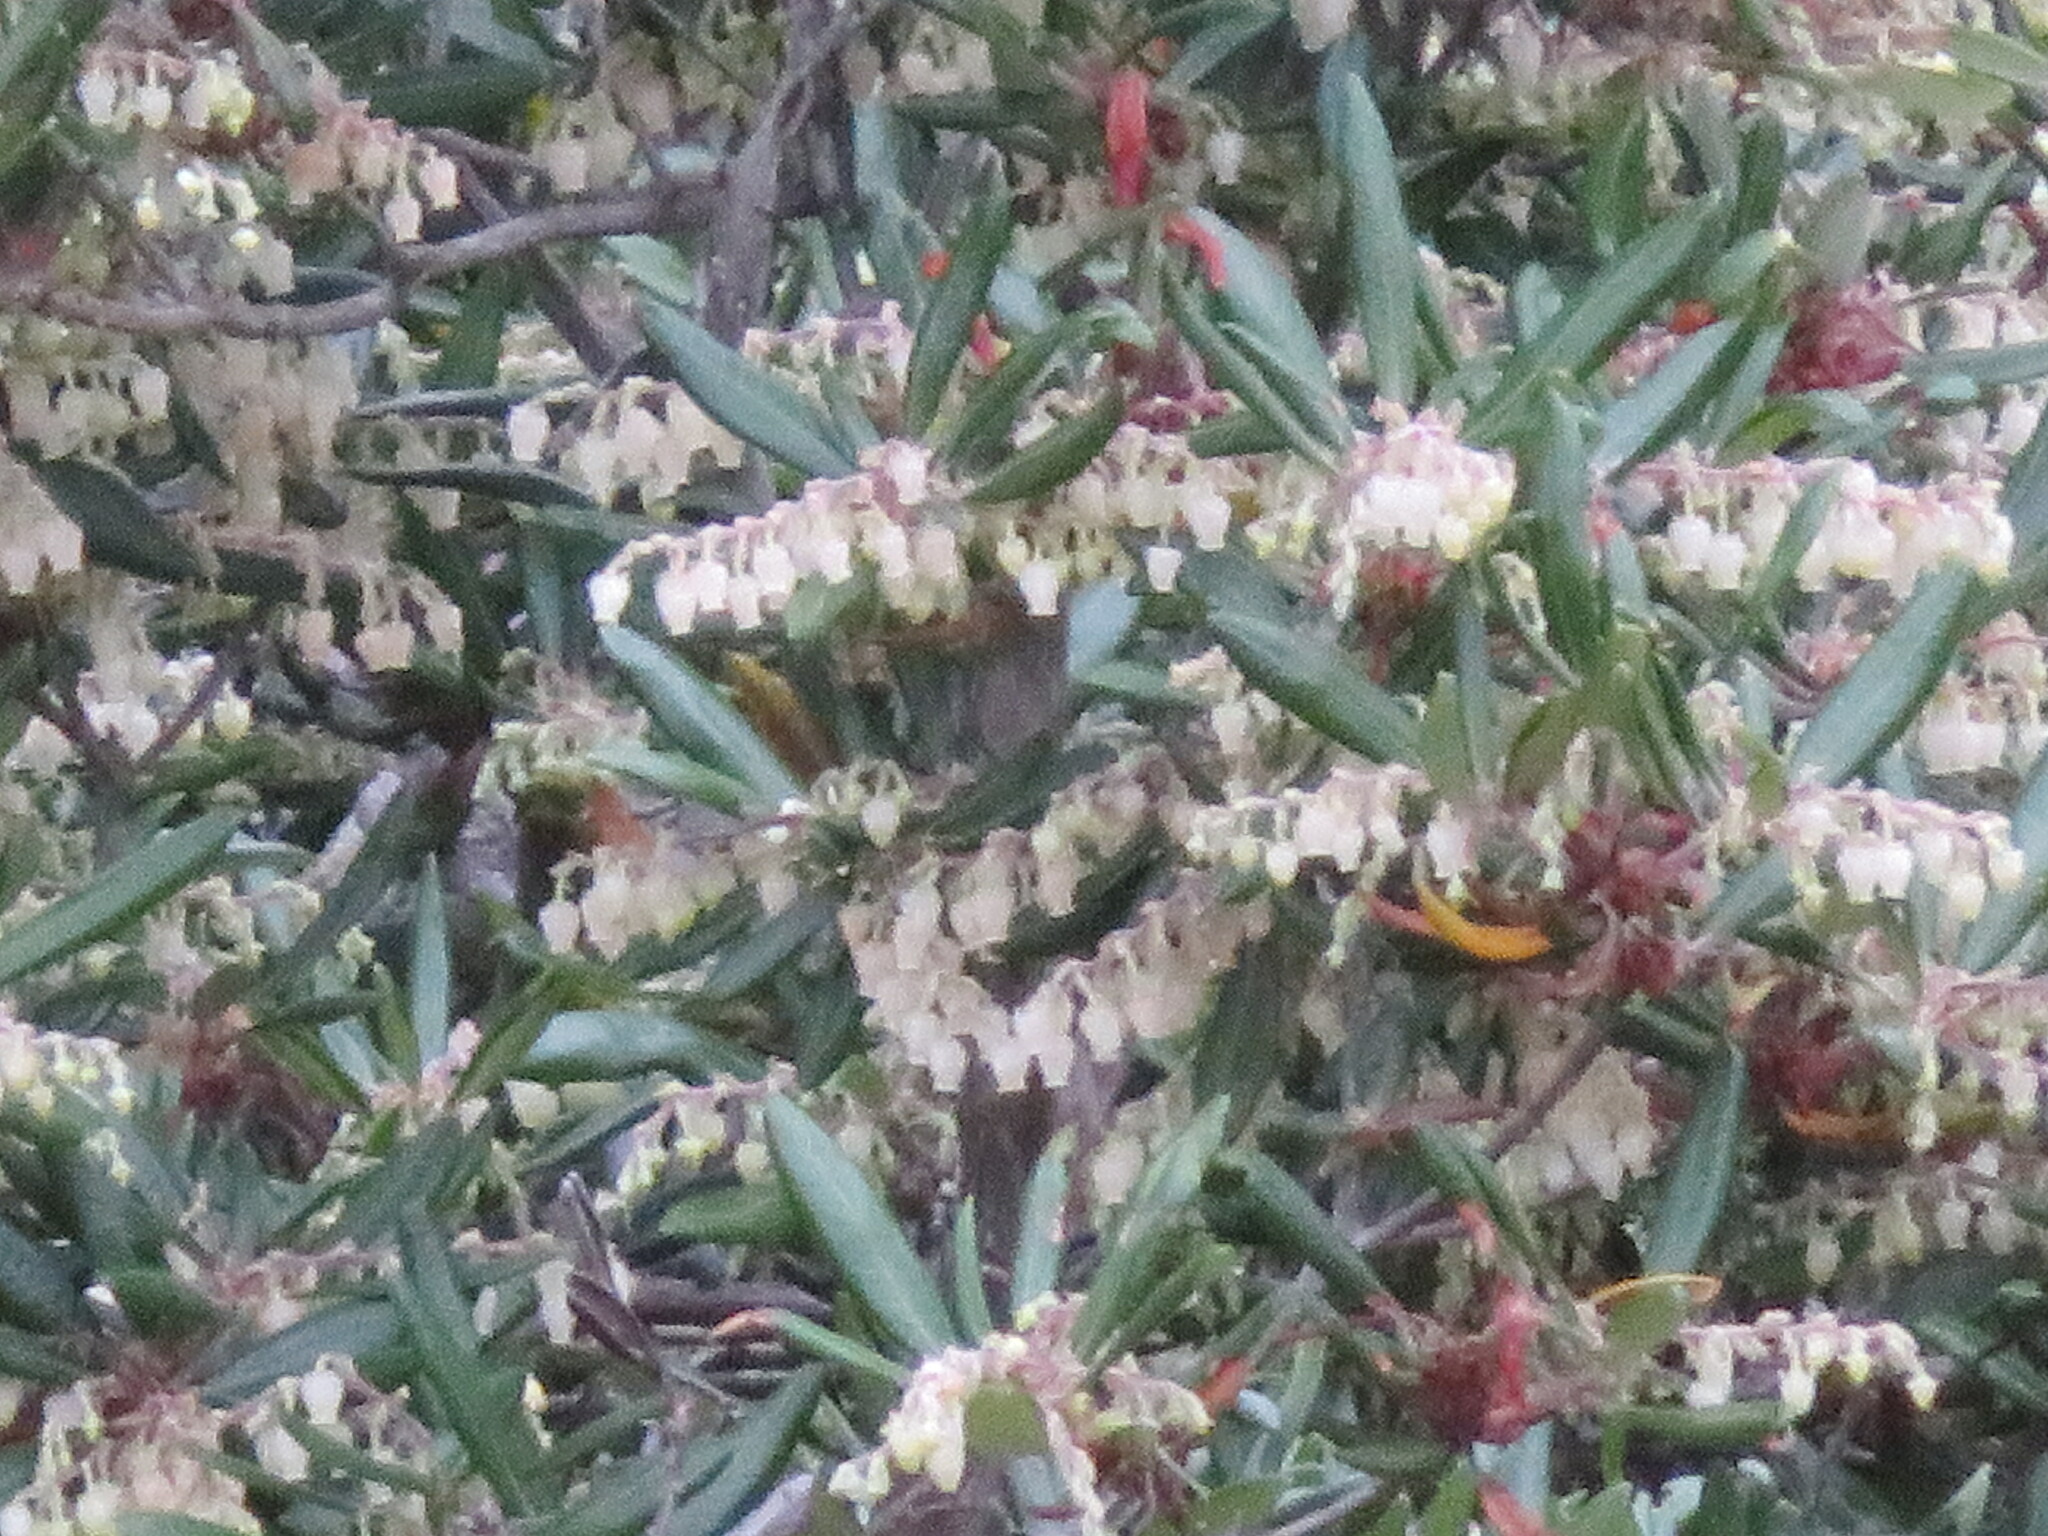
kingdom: Plantae
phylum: Tracheophyta
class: Magnoliopsida
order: Ericales
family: Ericaceae
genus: Comarostaphylis
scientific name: Comarostaphylis diversifolia
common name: Summer-holly
